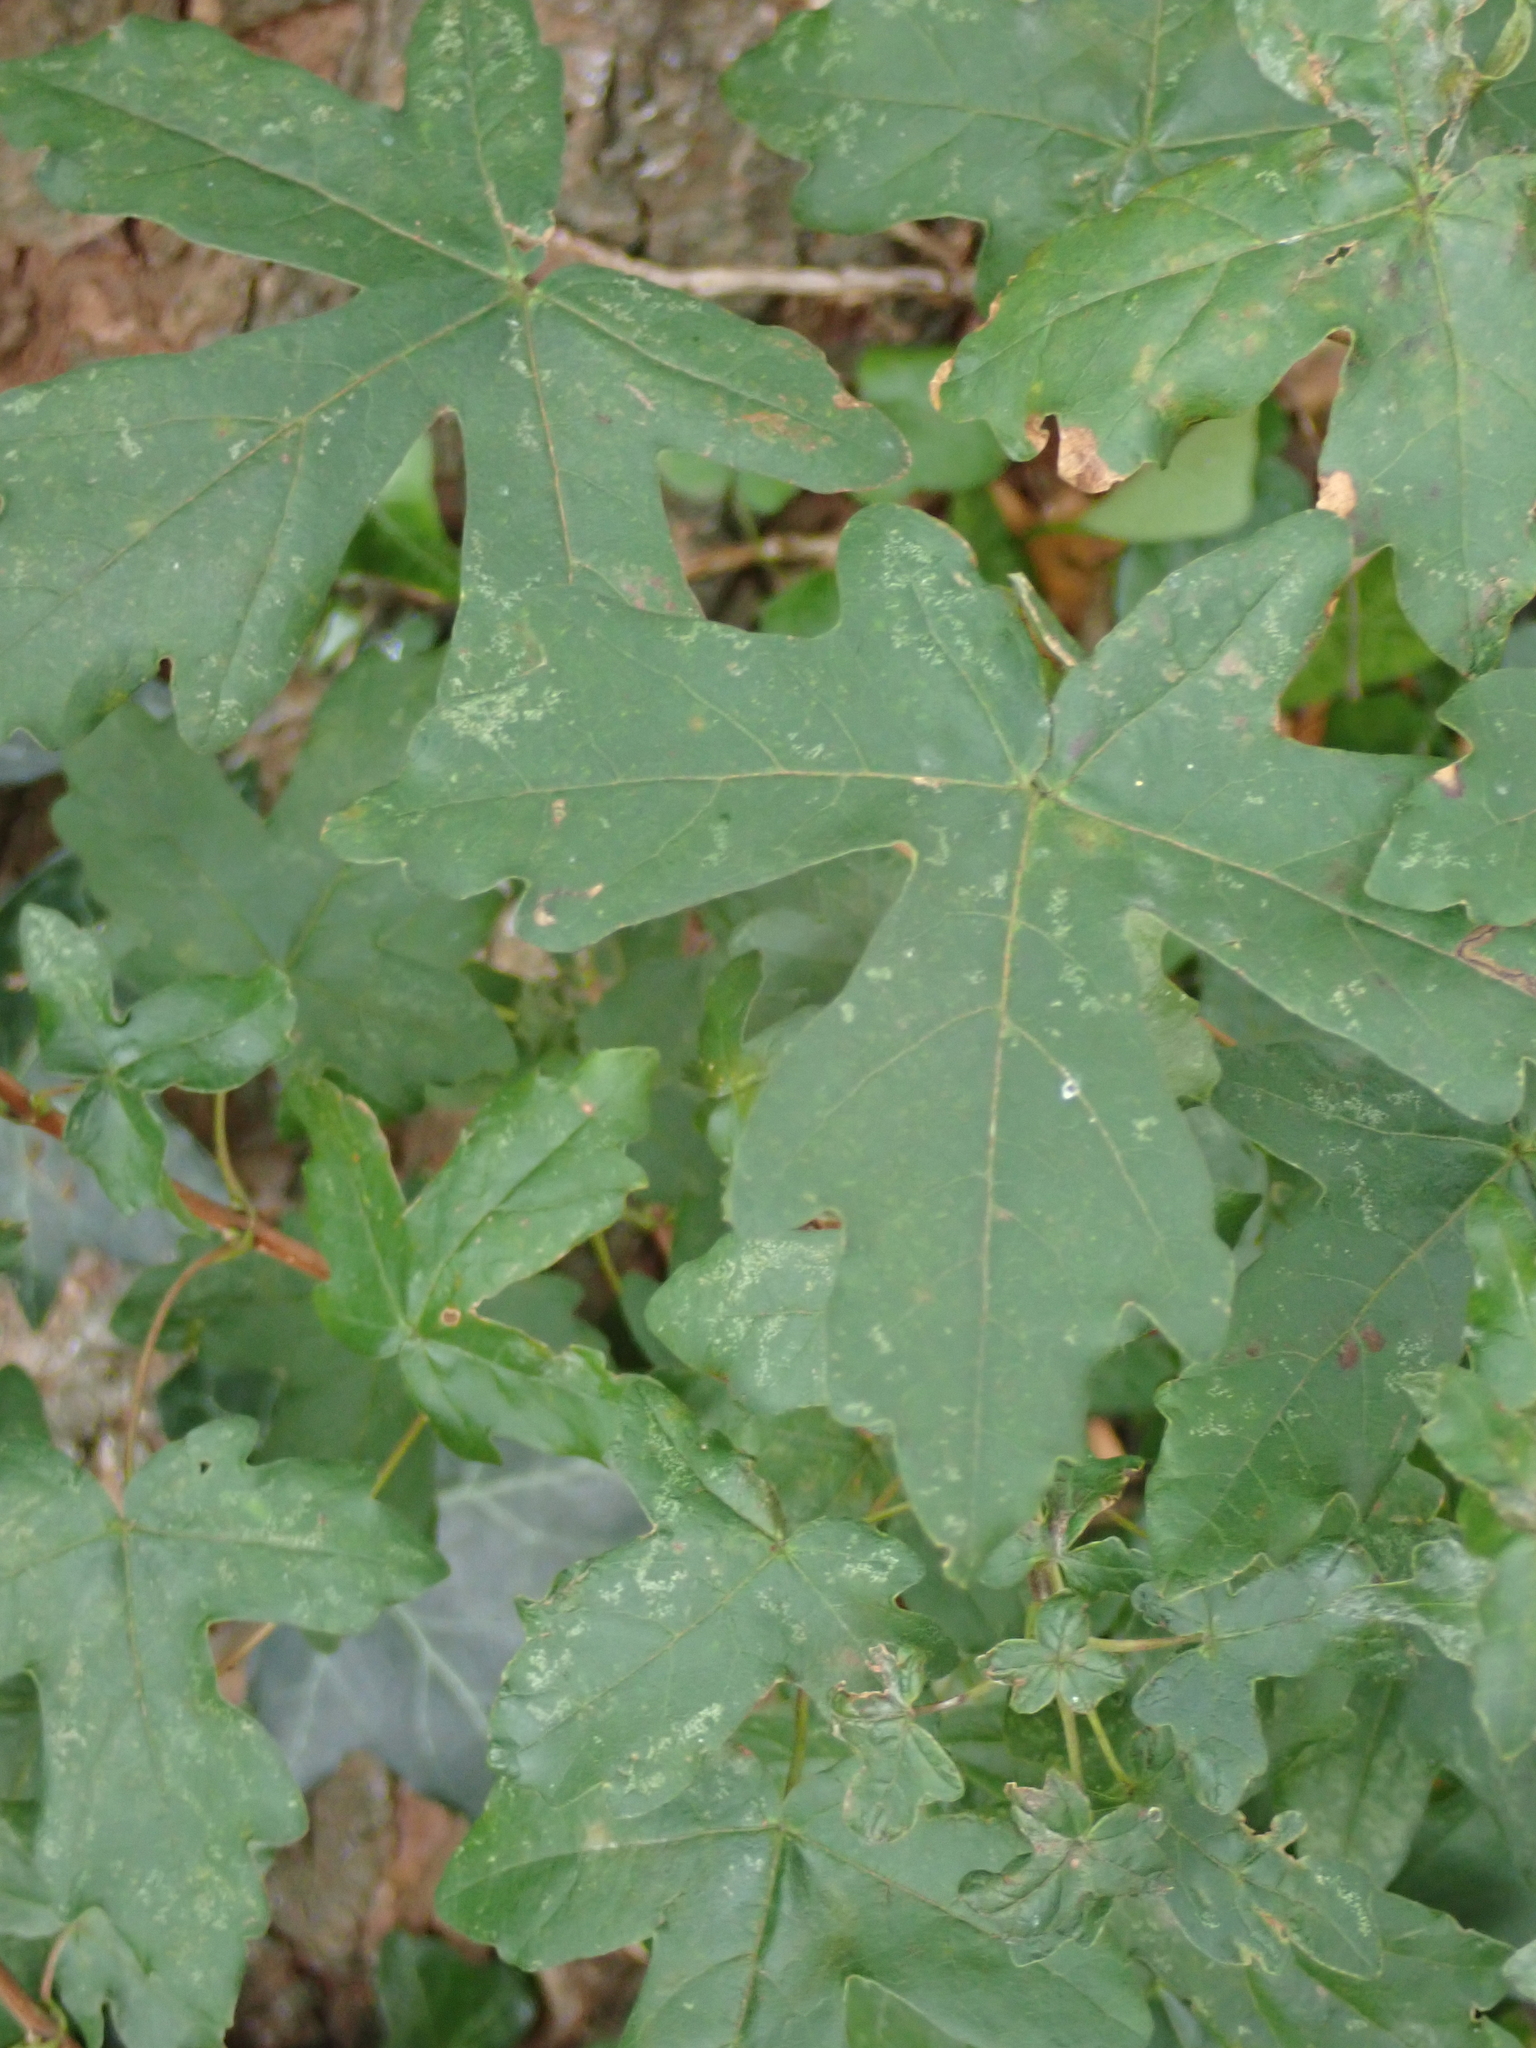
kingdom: Plantae
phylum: Tracheophyta
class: Magnoliopsida
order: Sapindales
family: Sapindaceae
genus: Acer
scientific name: Acer campestre
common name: Field maple
